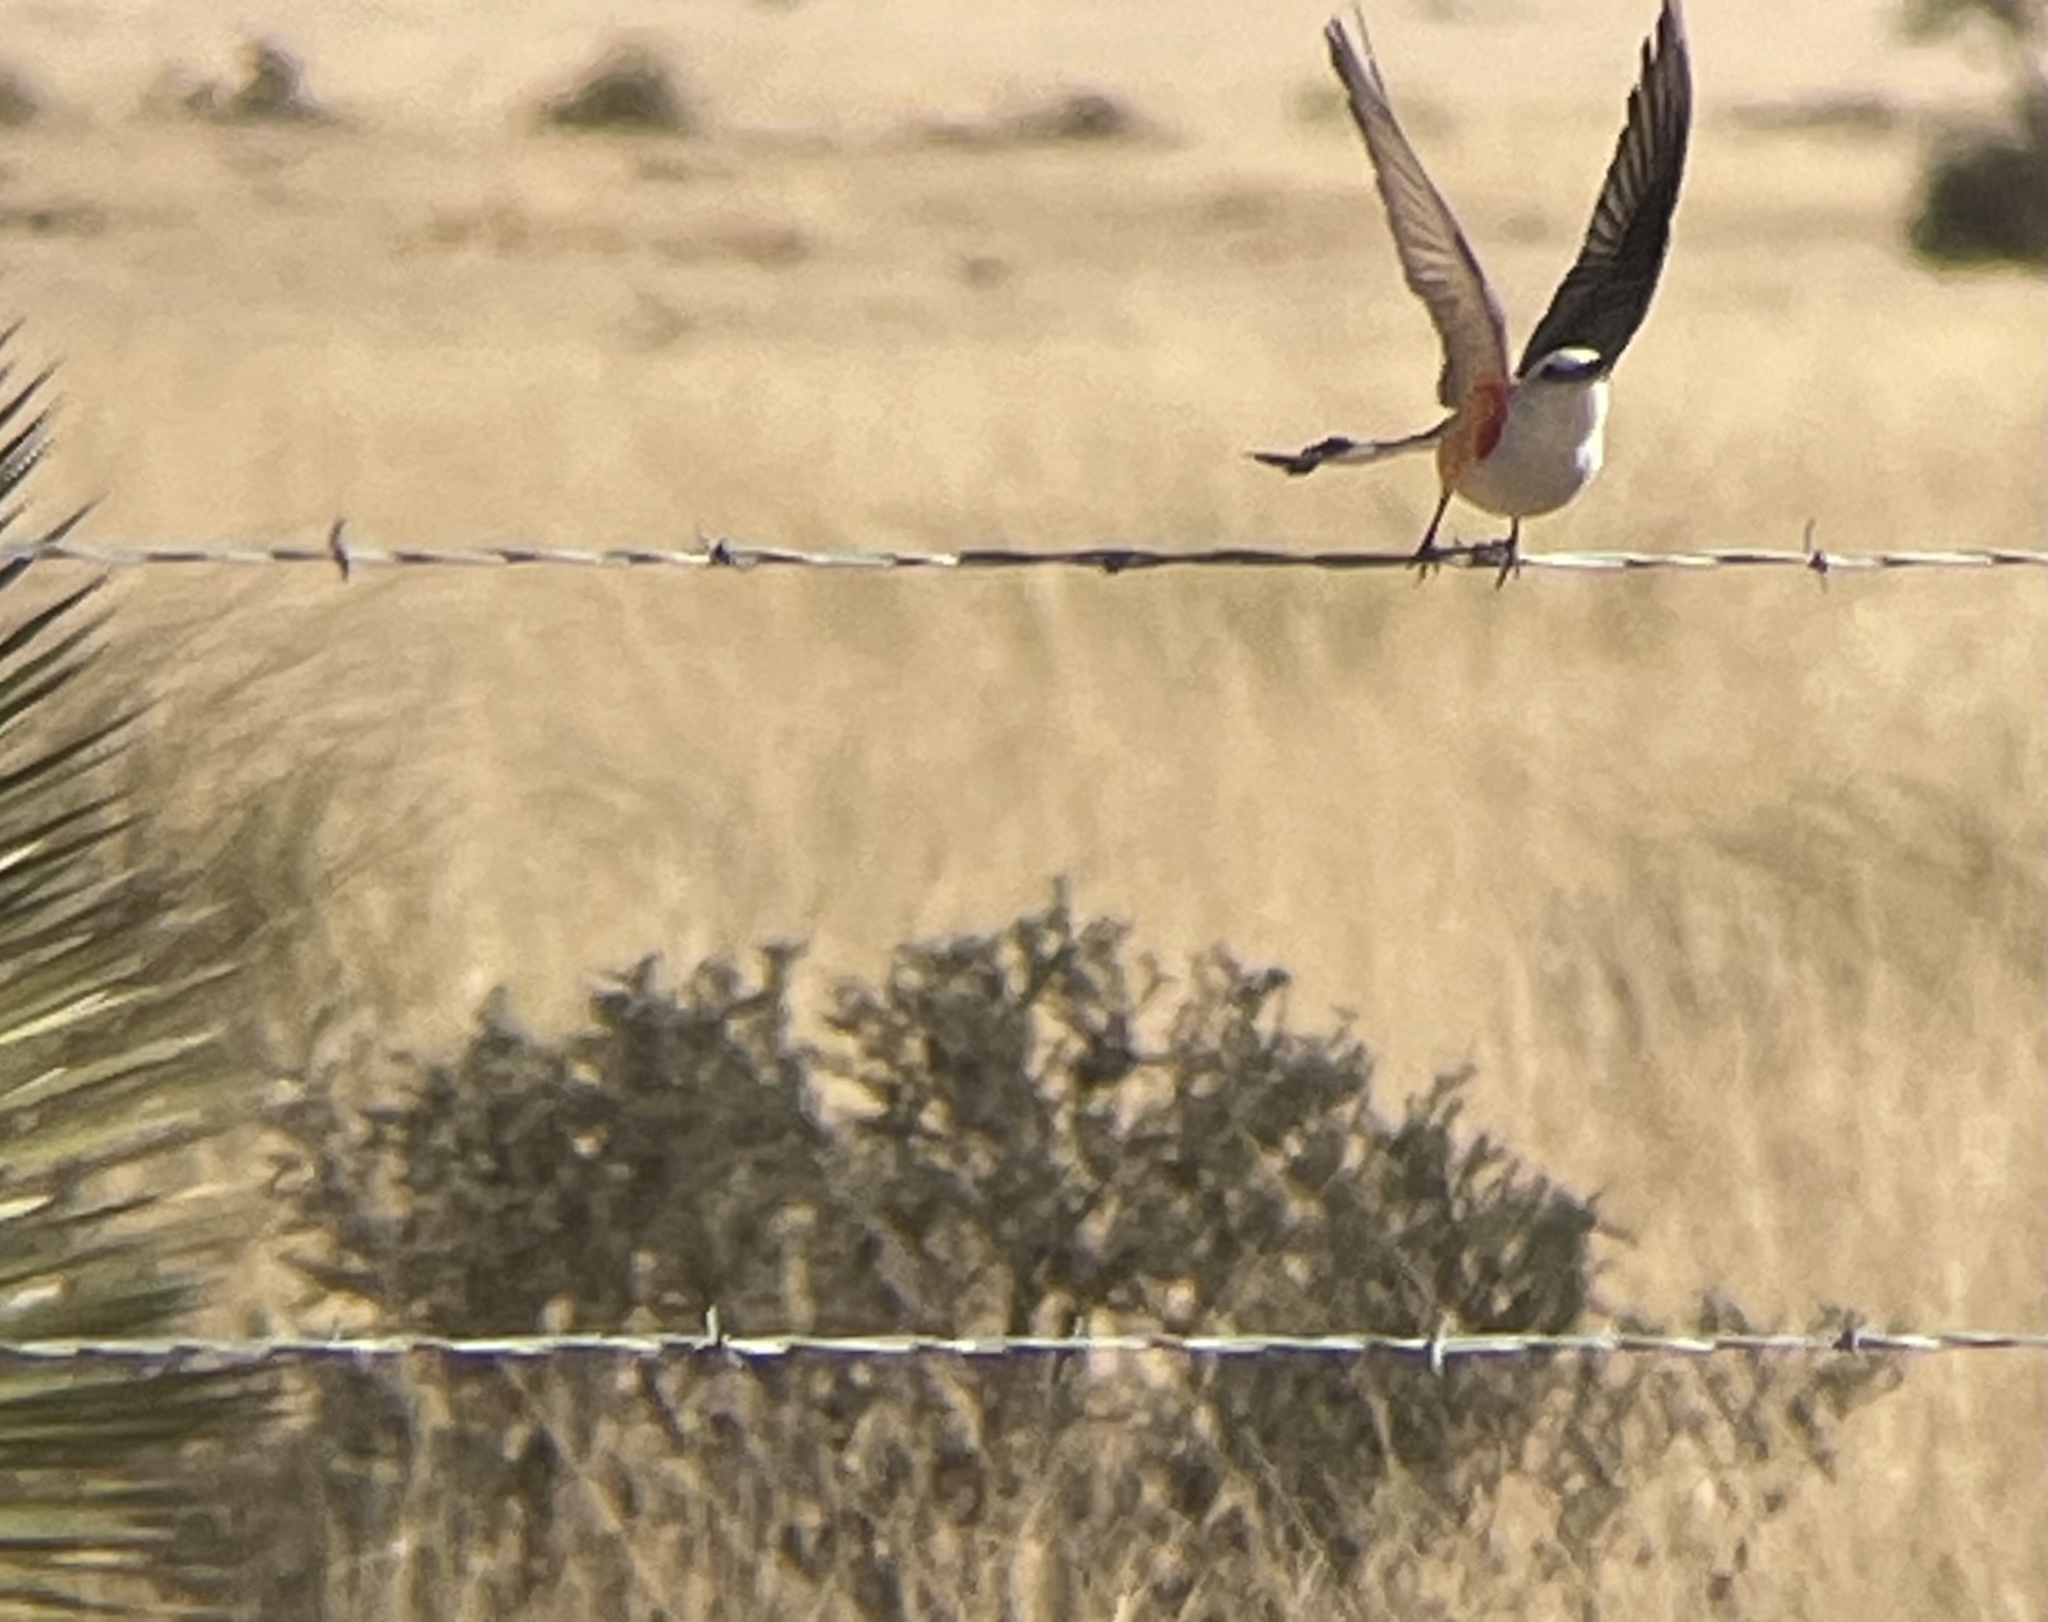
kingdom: Animalia
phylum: Chordata
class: Aves
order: Passeriformes
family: Tyrannidae
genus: Tyrannus
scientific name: Tyrannus forficatus
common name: Scissor-tailed flycatcher
